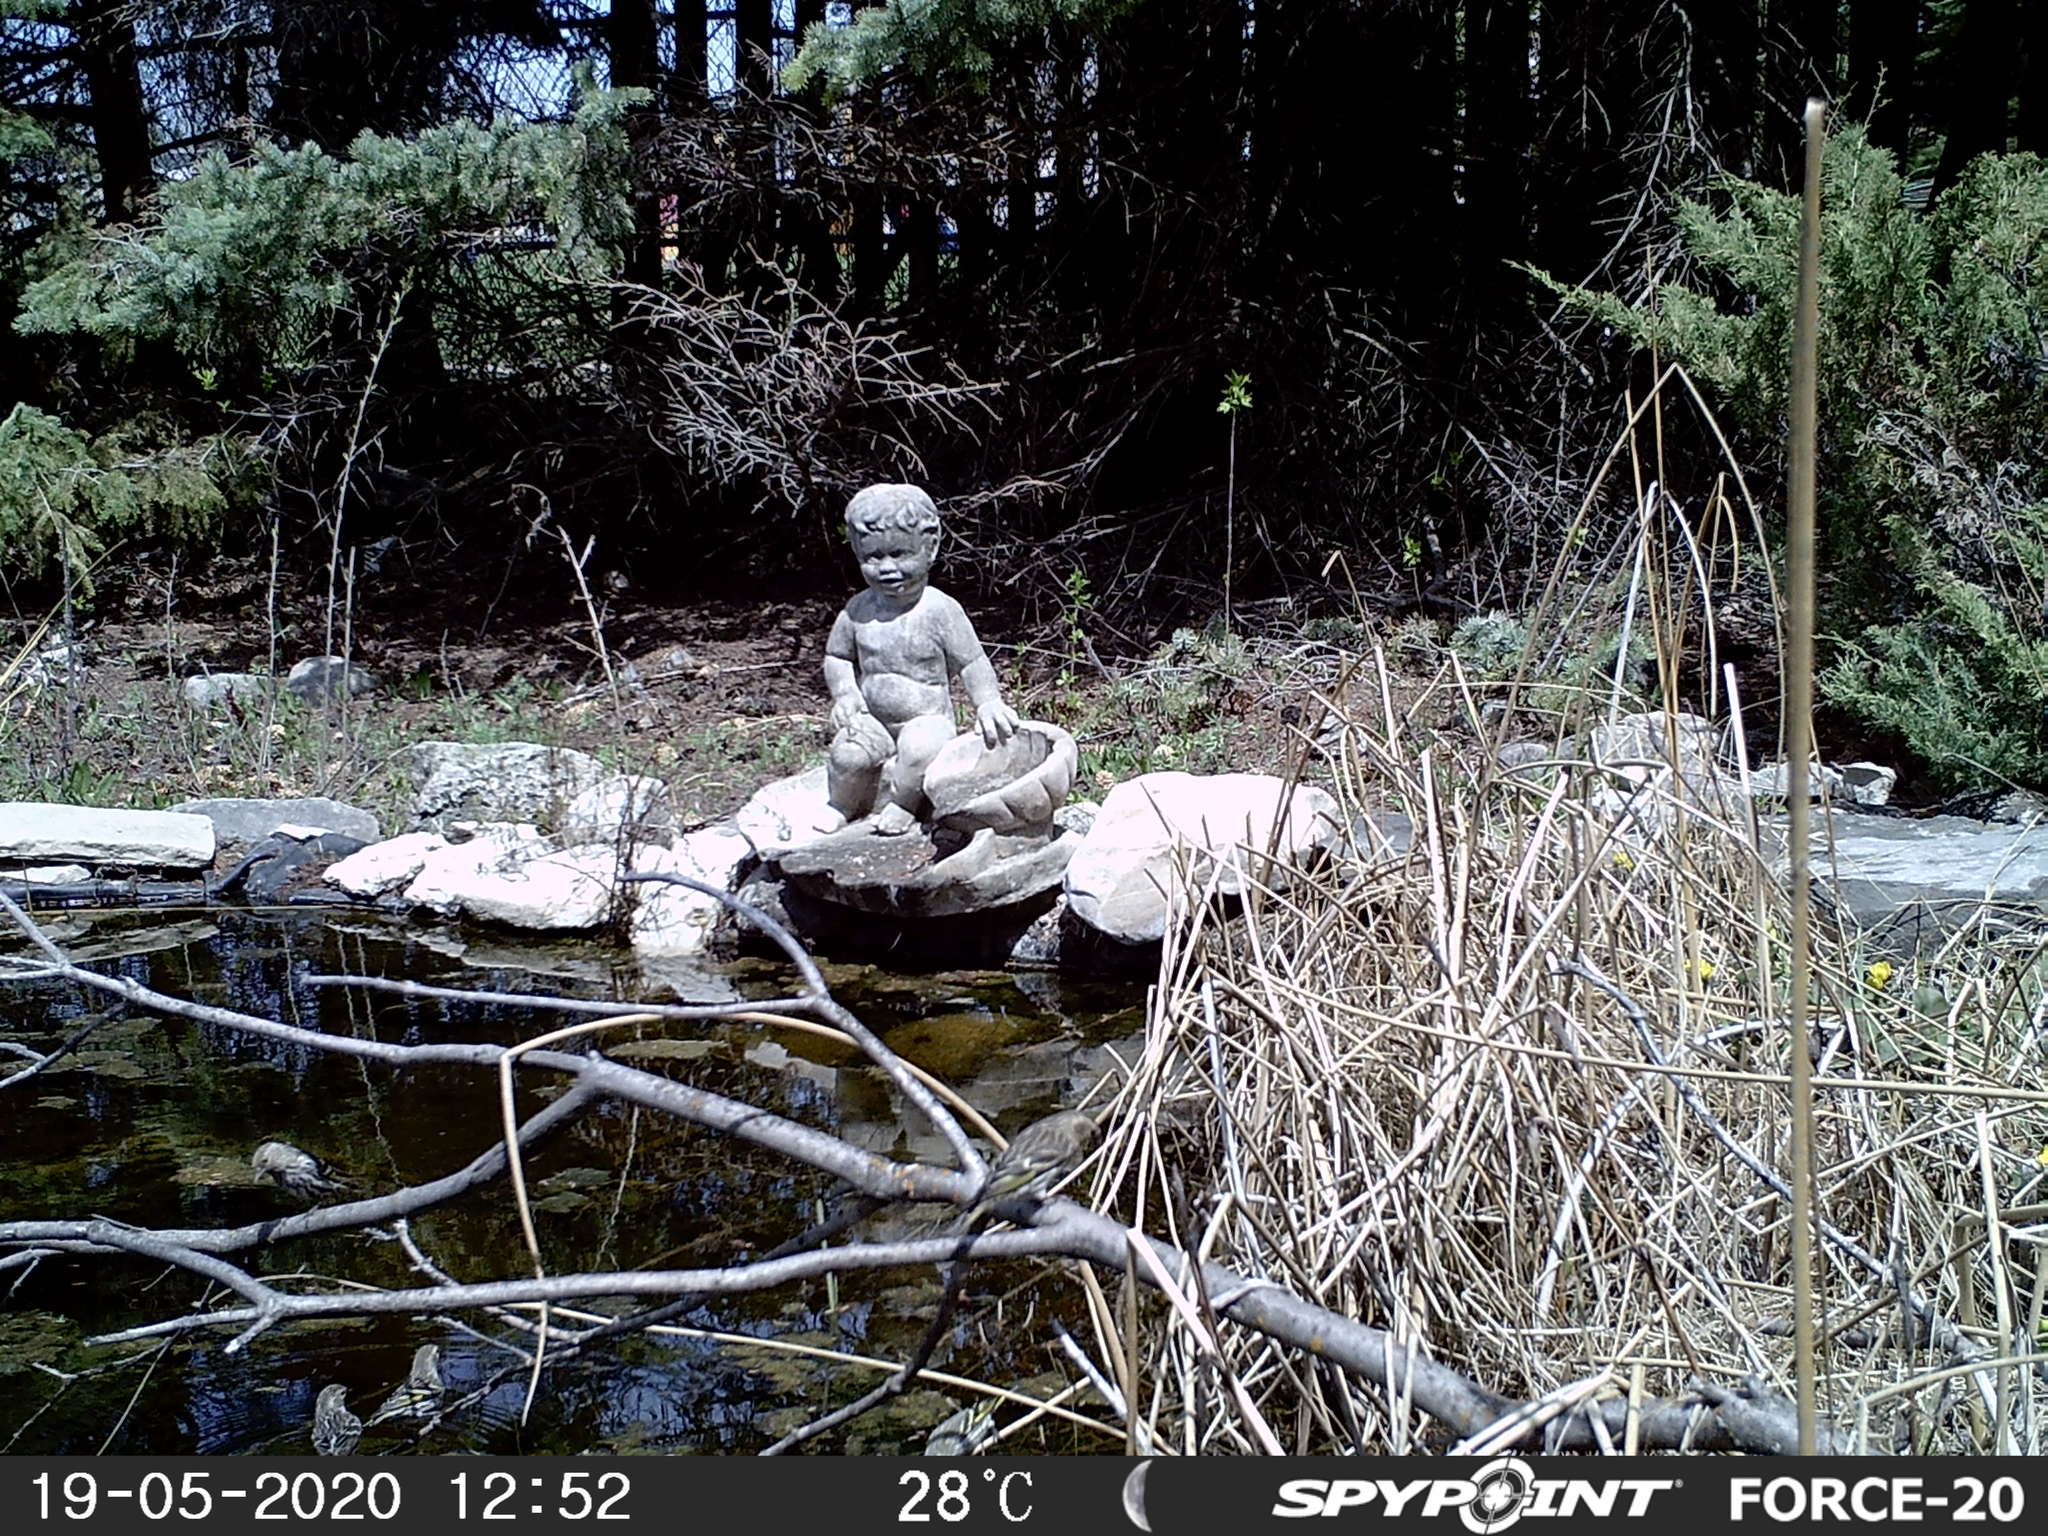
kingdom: Animalia
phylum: Chordata
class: Aves
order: Passeriformes
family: Fringillidae
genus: Spinus
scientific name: Spinus pinus
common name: Pine siskin
